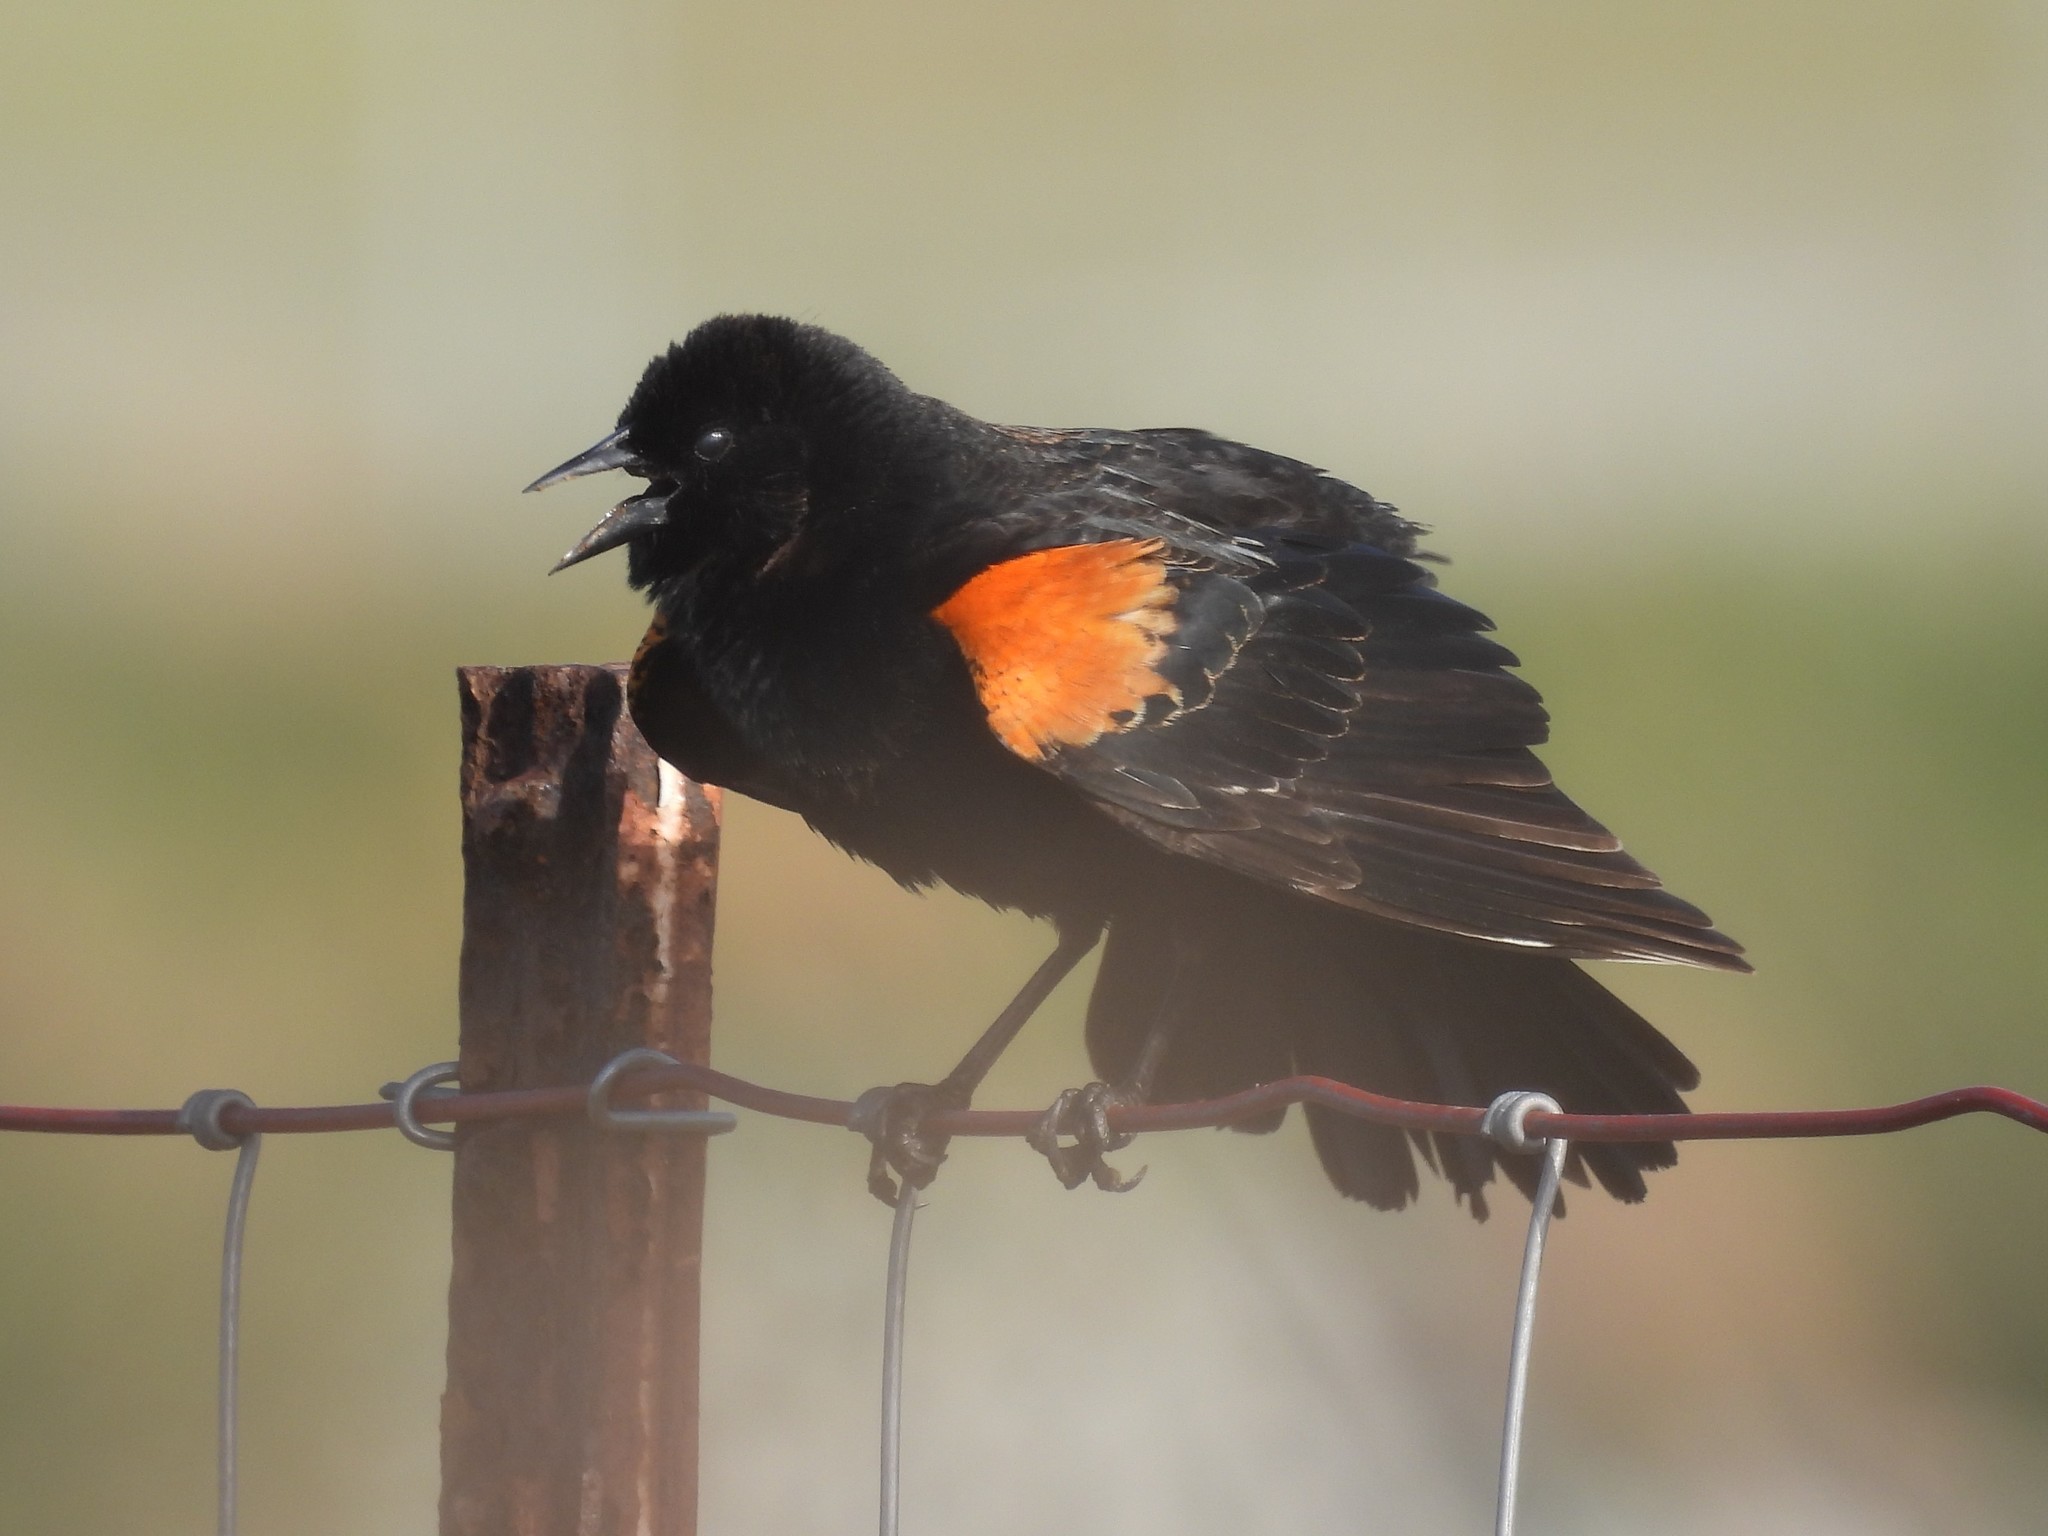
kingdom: Animalia
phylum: Chordata
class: Aves
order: Passeriformes
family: Icteridae
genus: Agelaius
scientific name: Agelaius phoeniceus
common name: Red-winged blackbird
